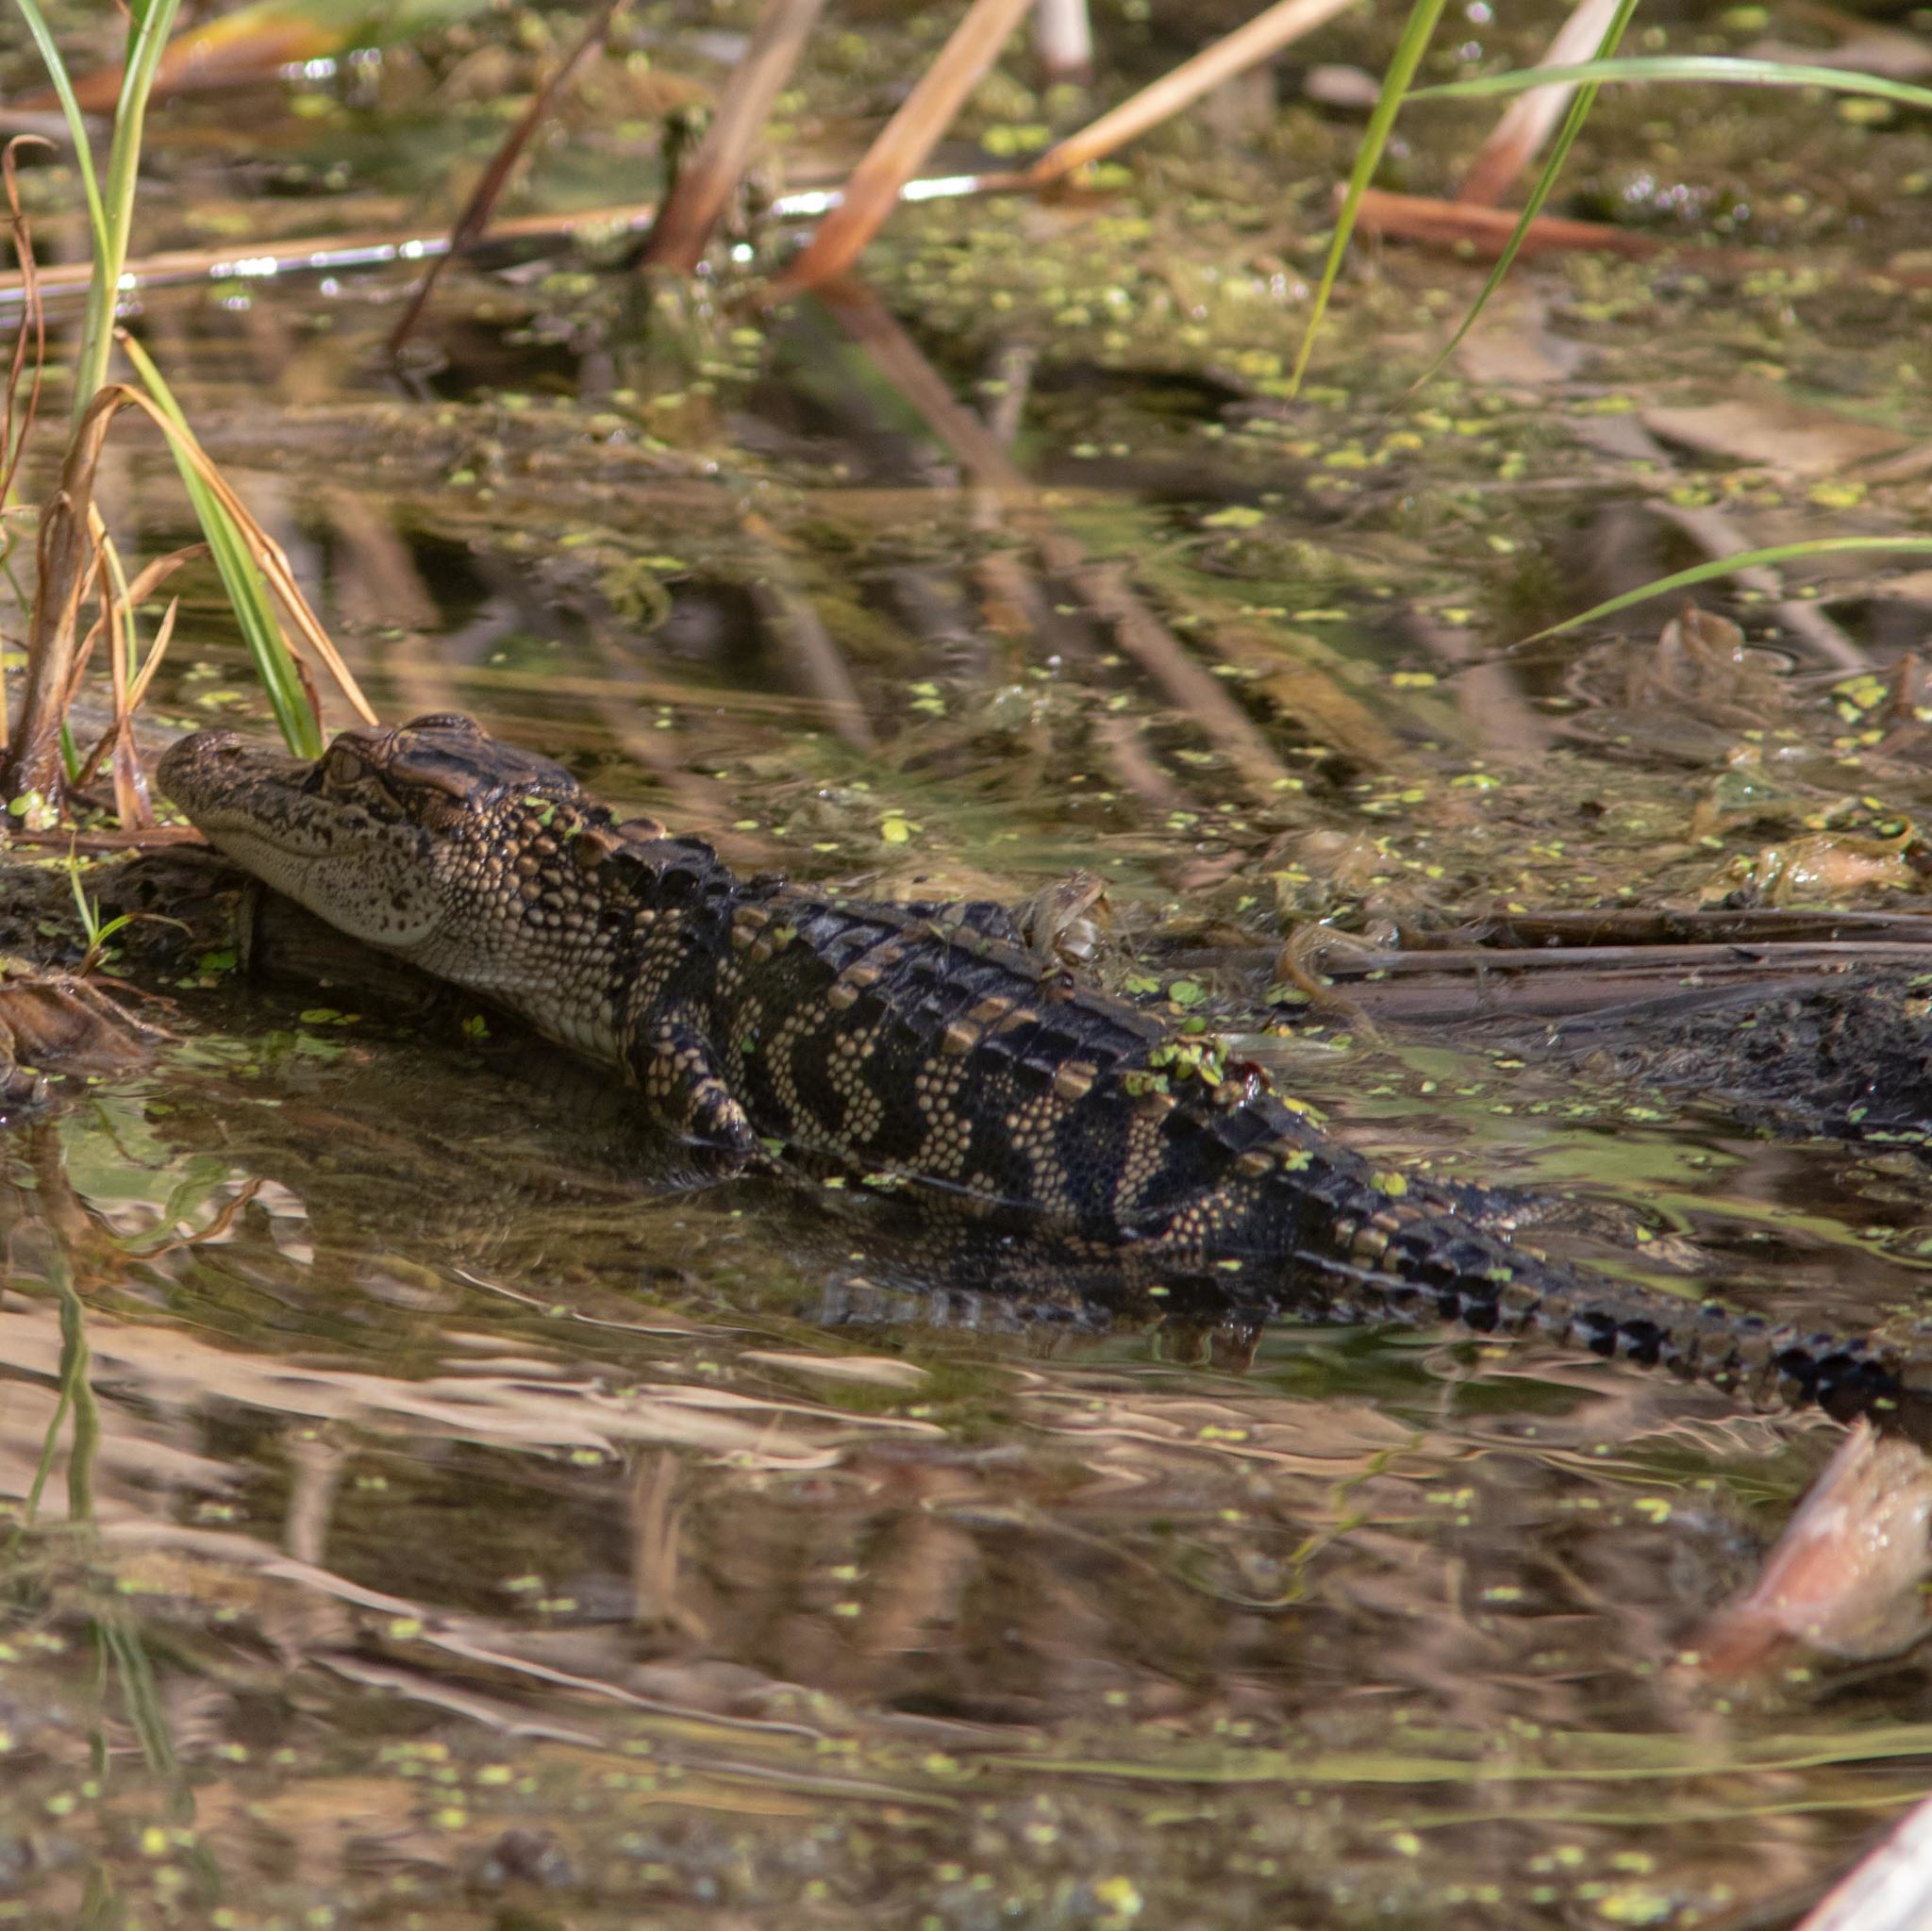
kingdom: Animalia
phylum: Chordata
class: Crocodylia
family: Alligatoridae
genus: Alligator
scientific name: Alligator mississippiensis
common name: American alligator
